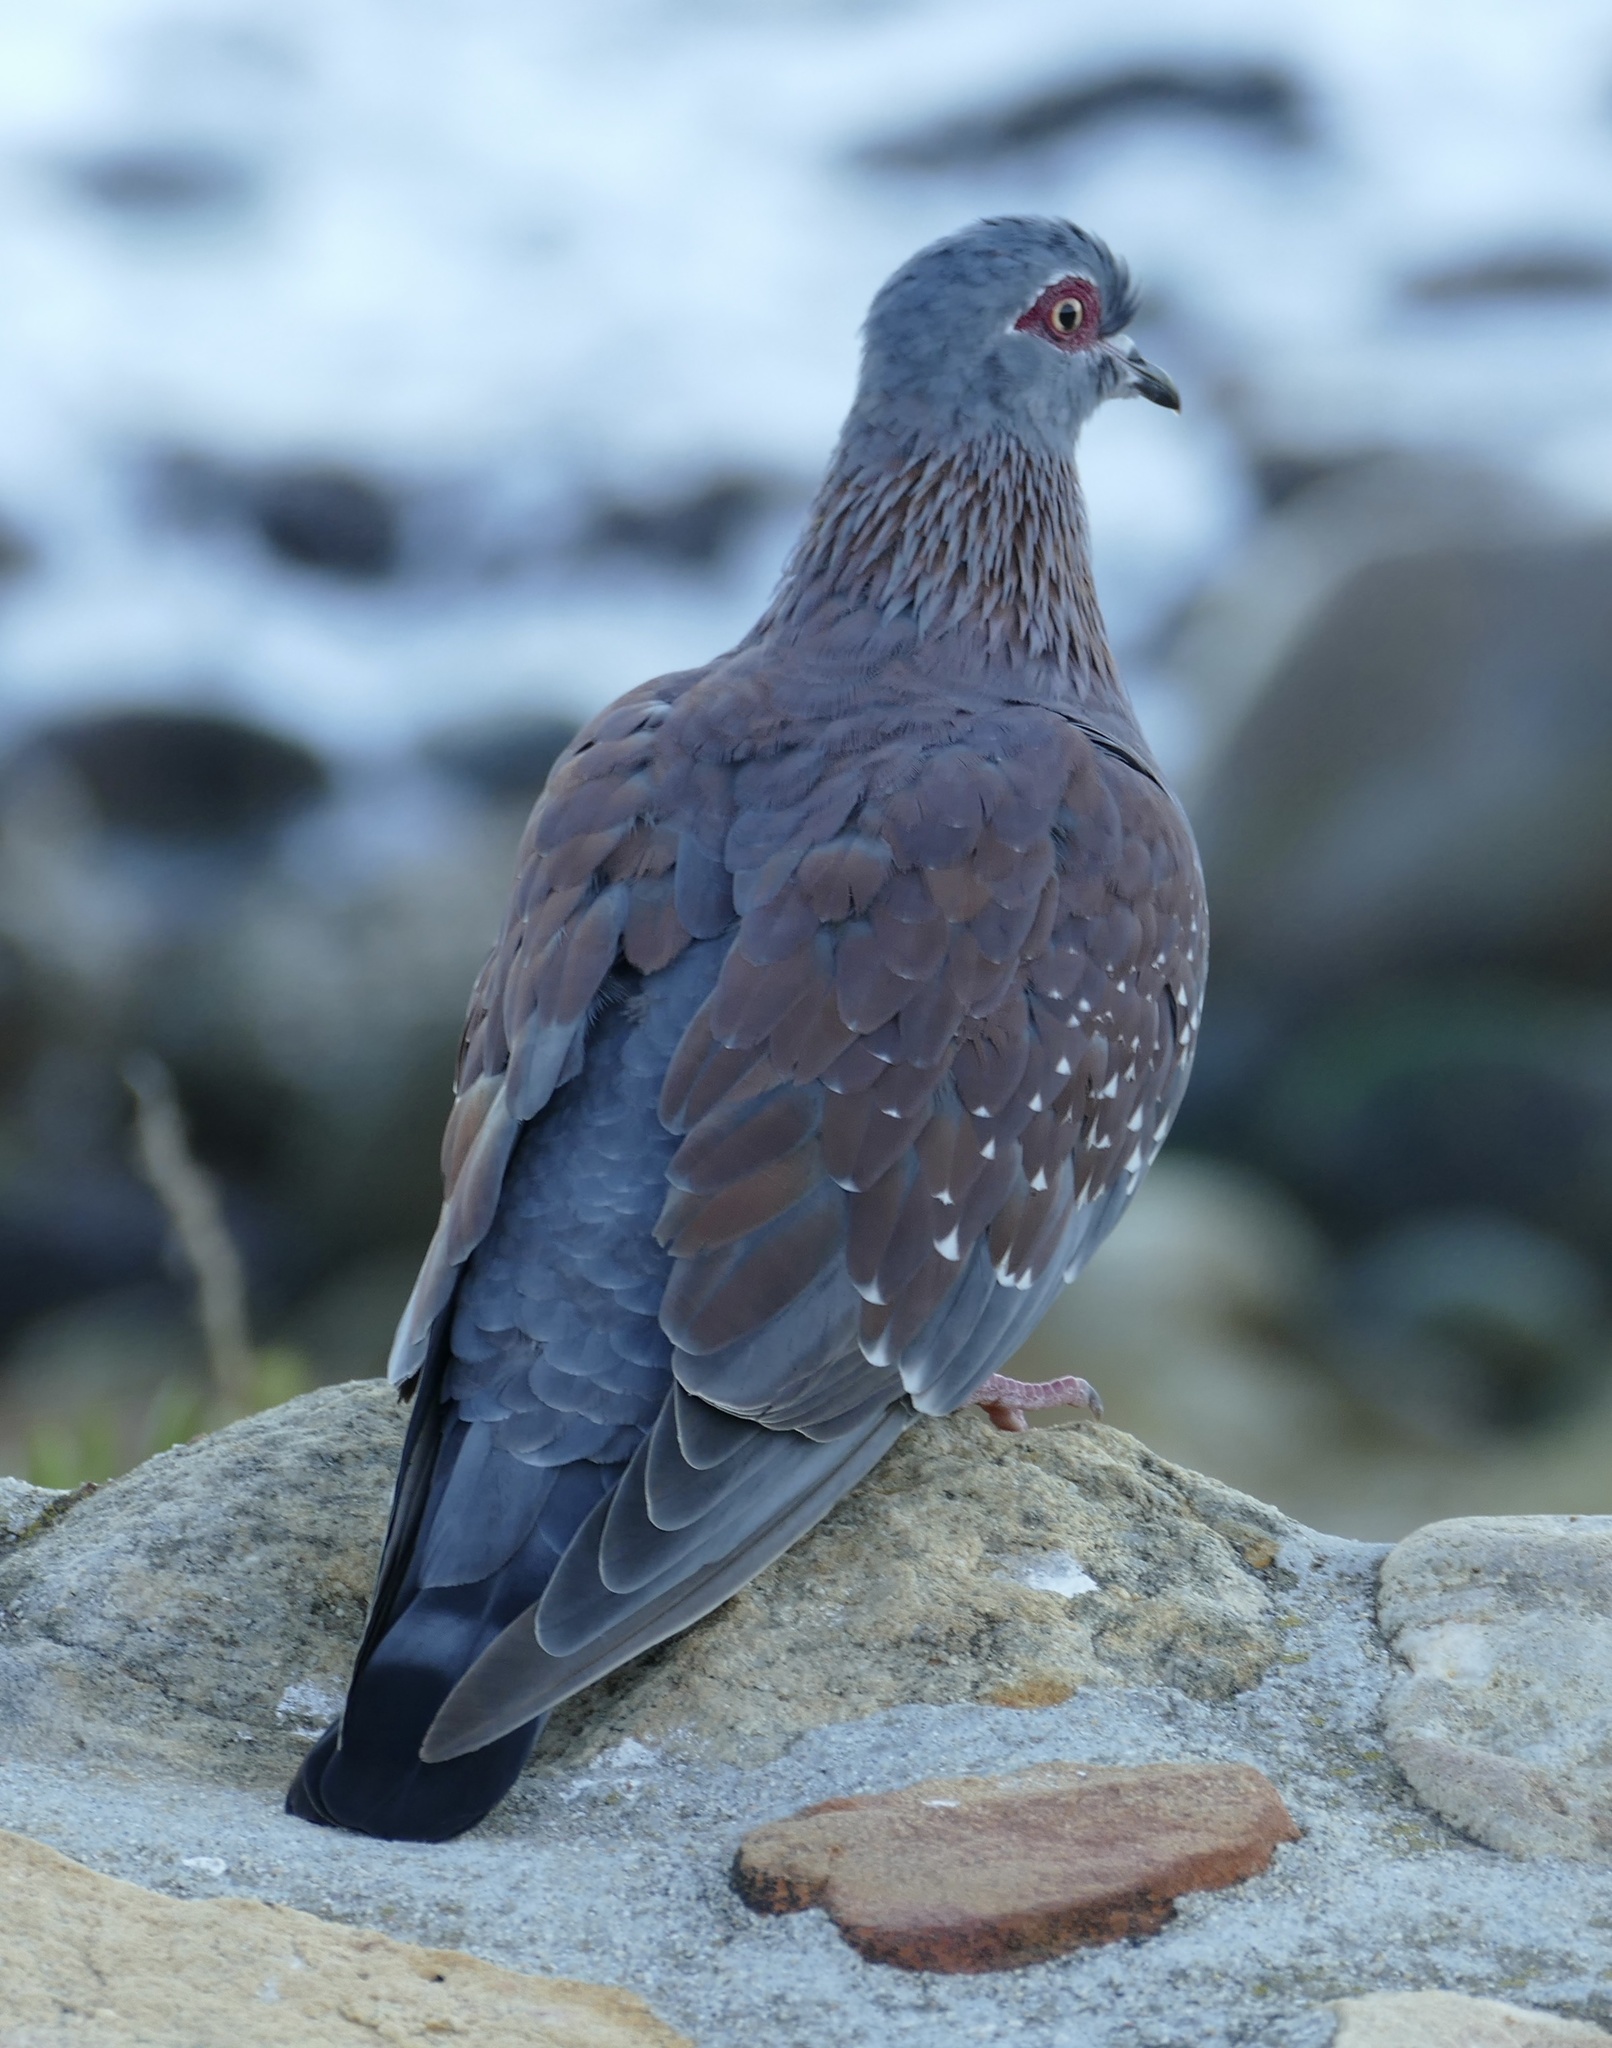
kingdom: Animalia
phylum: Chordata
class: Aves
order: Columbiformes
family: Columbidae
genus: Columba
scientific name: Columba guinea
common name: Speckled pigeon
